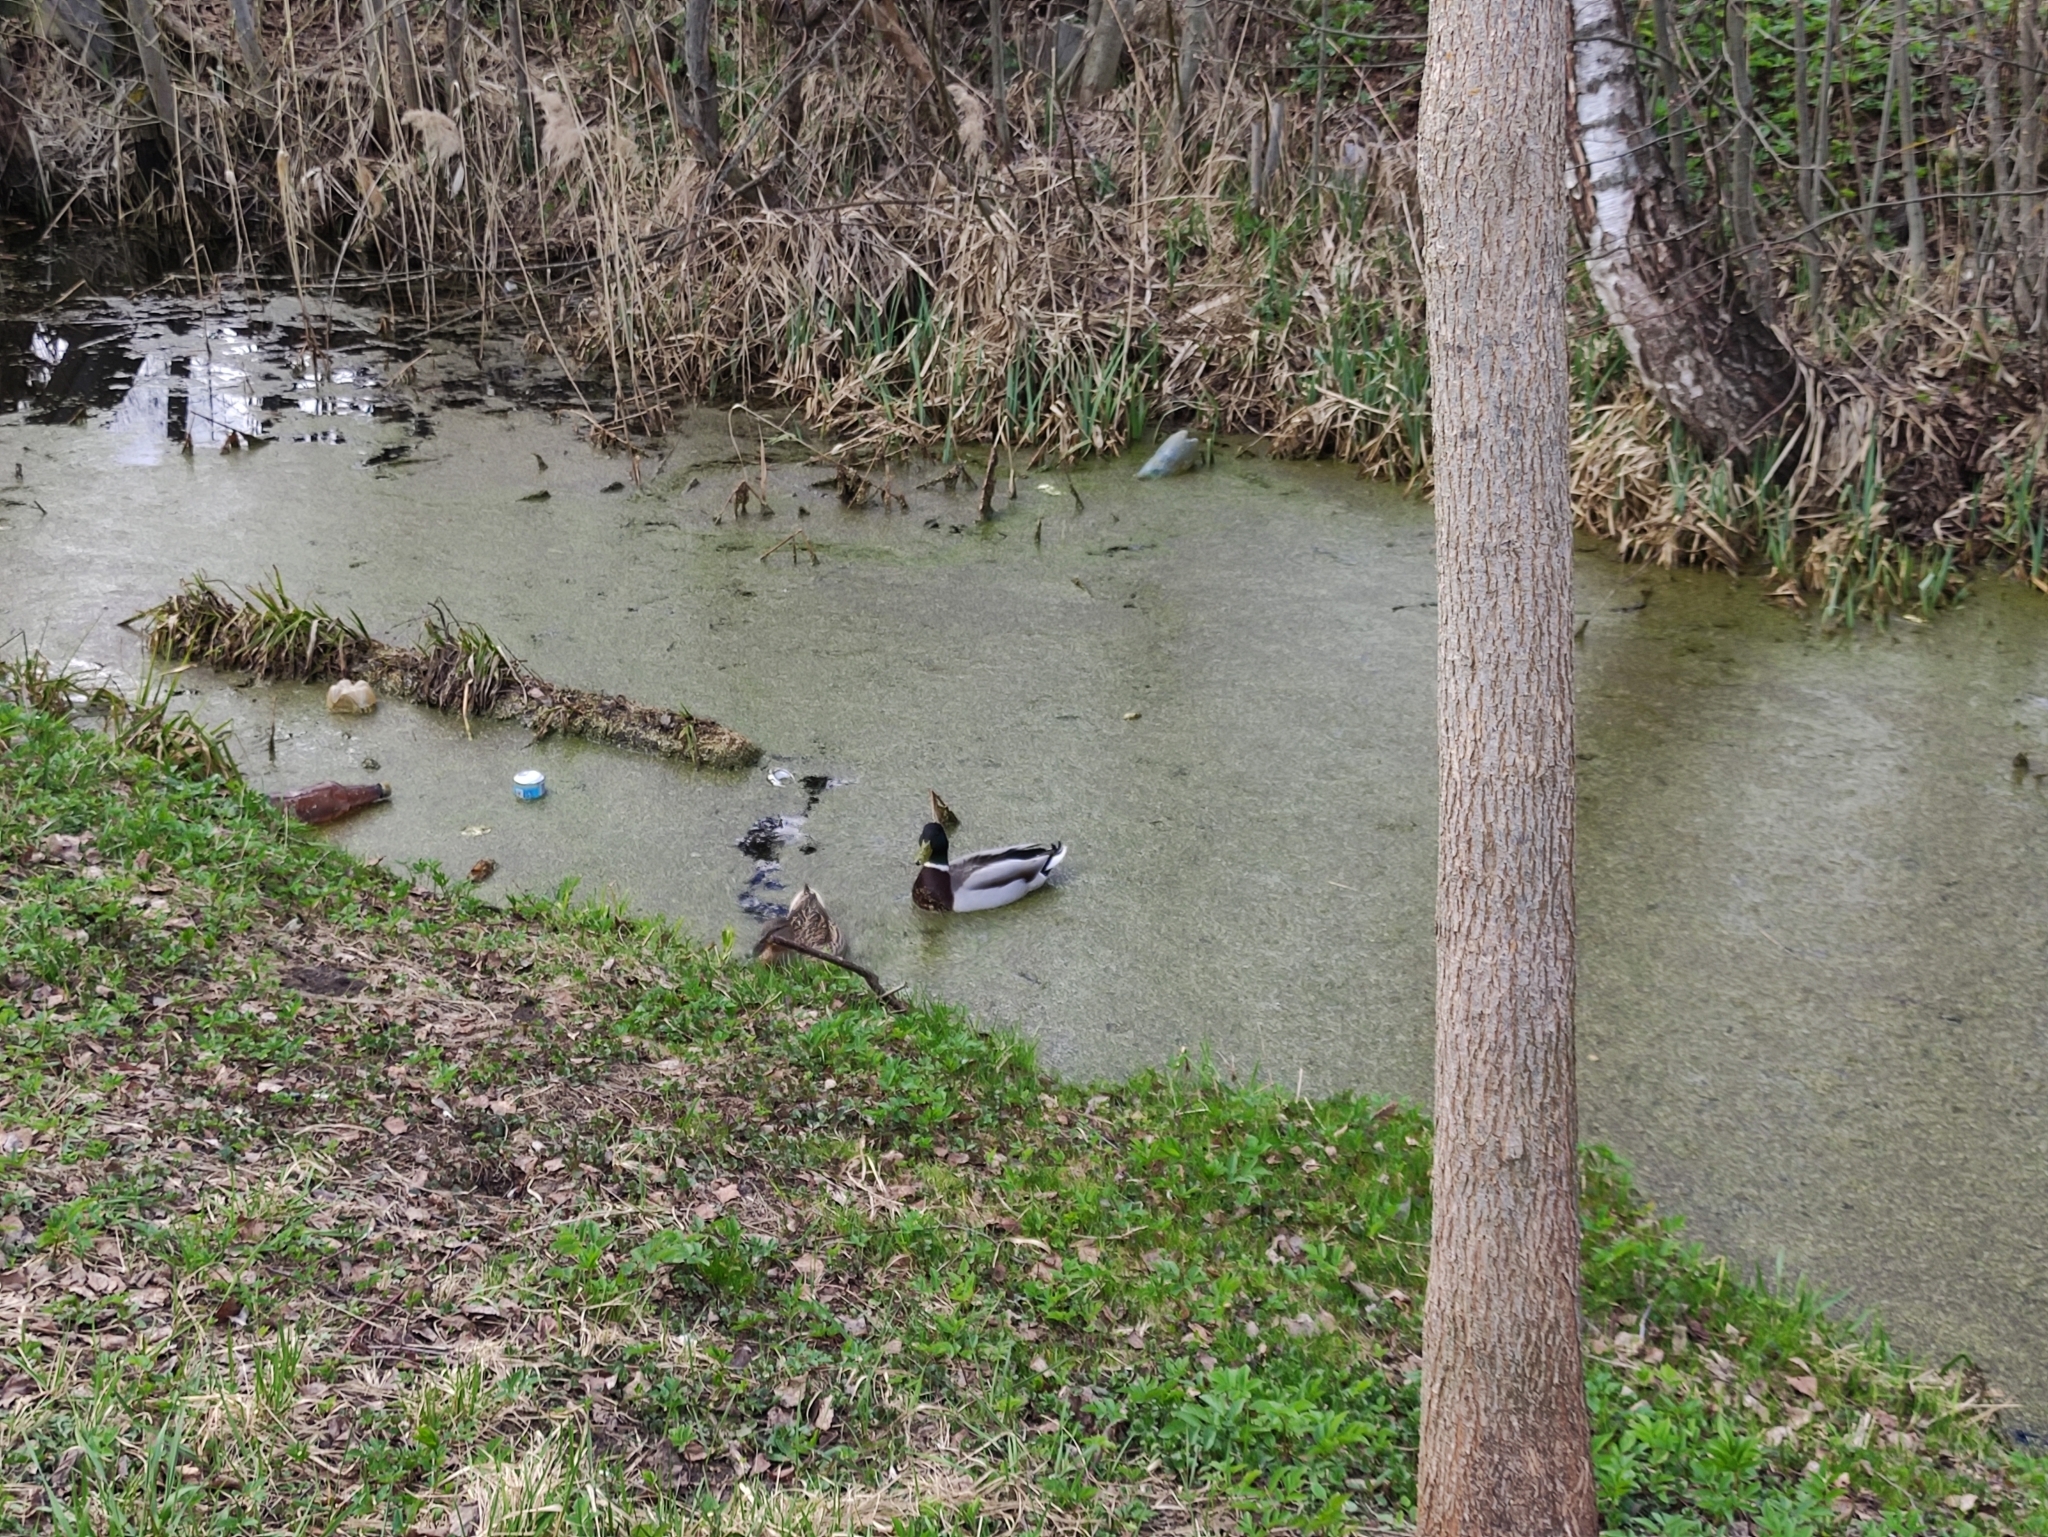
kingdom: Animalia
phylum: Chordata
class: Aves
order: Anseriformes
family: Anatidae
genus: Anas
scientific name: Anas platyrhynchos
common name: Mallard
